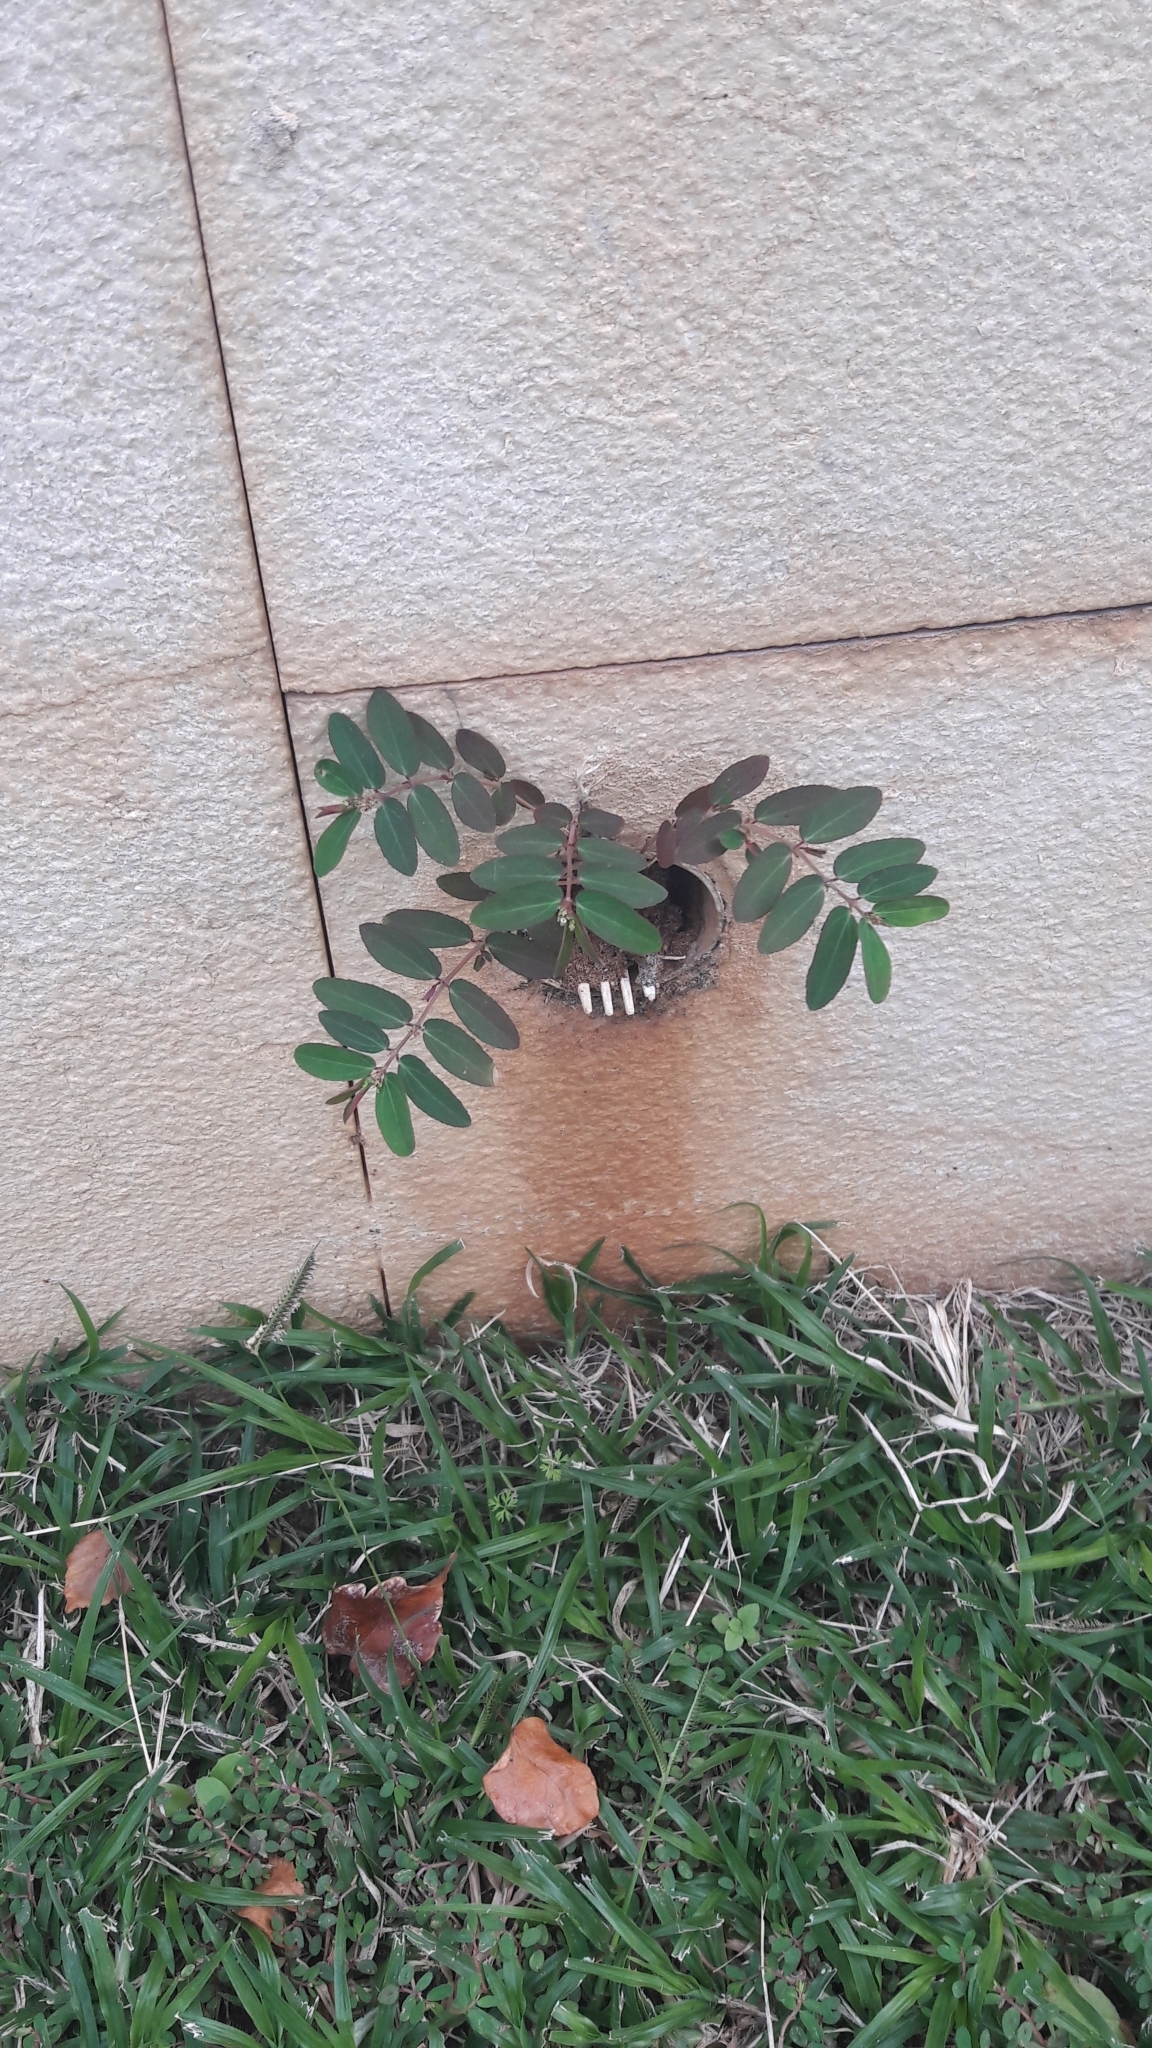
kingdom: Plantae
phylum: Tracheophyta
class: Magnoliopsida
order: Malpighiales
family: Euphorbiaceae
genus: Euphorbia
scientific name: Euphorbia hypericifolia
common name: Graceful sandmat
